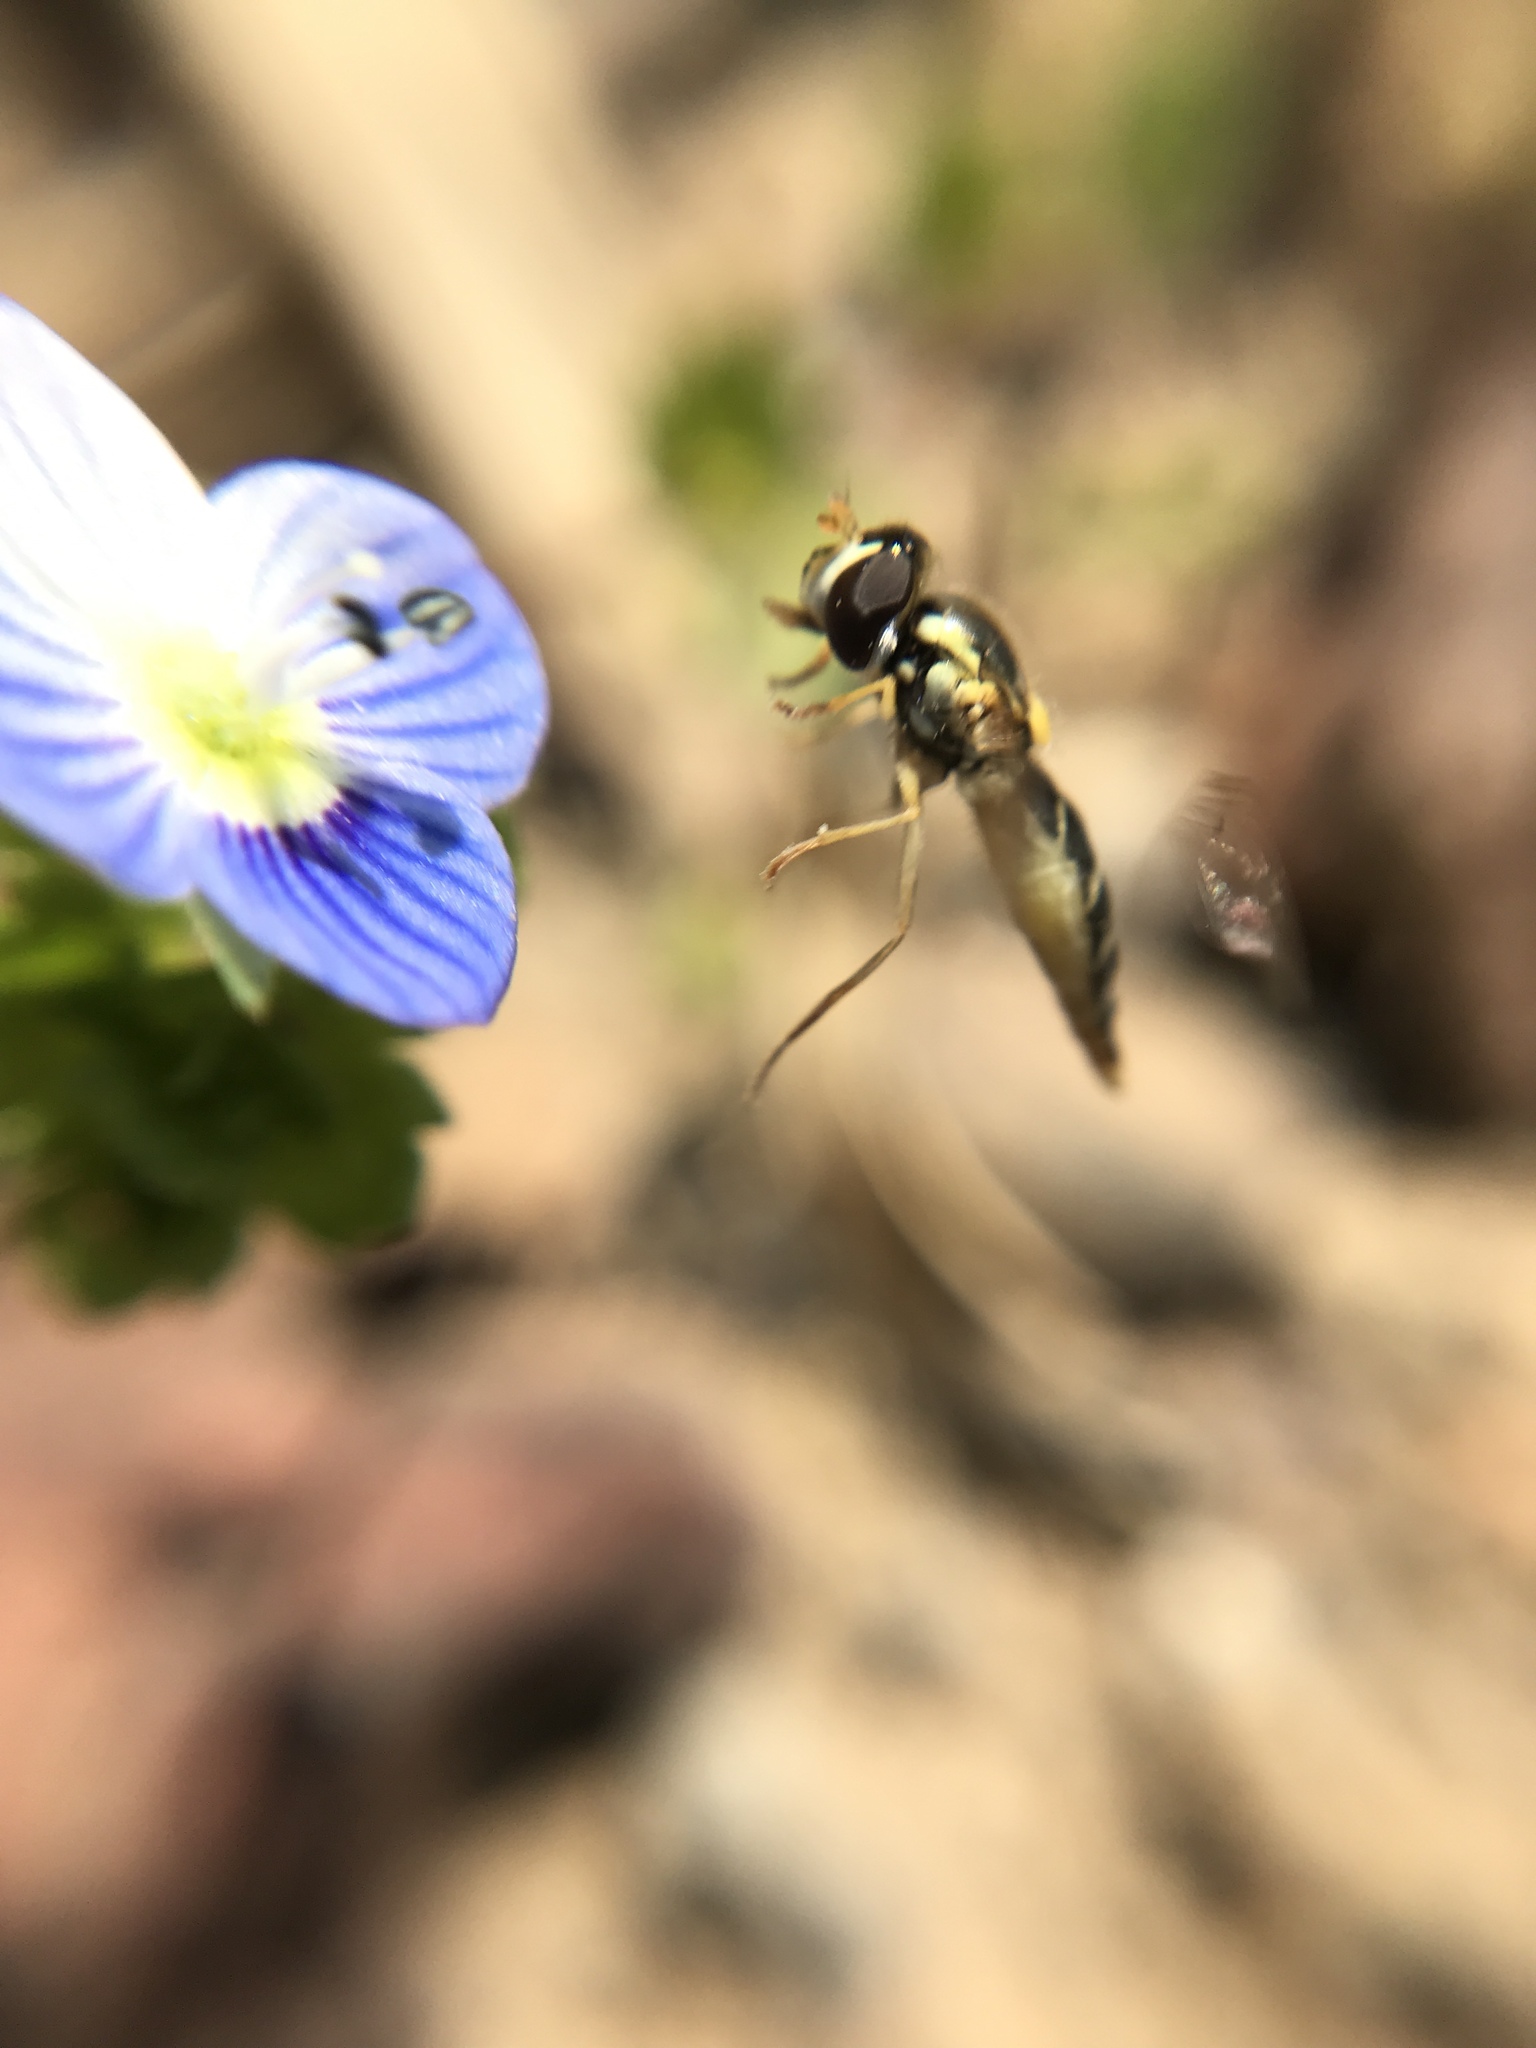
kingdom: Animalia
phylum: Arthropoda
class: Insecta
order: Diptera
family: Syrphidae
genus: Sphaerophoria
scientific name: Sphaerophoria
